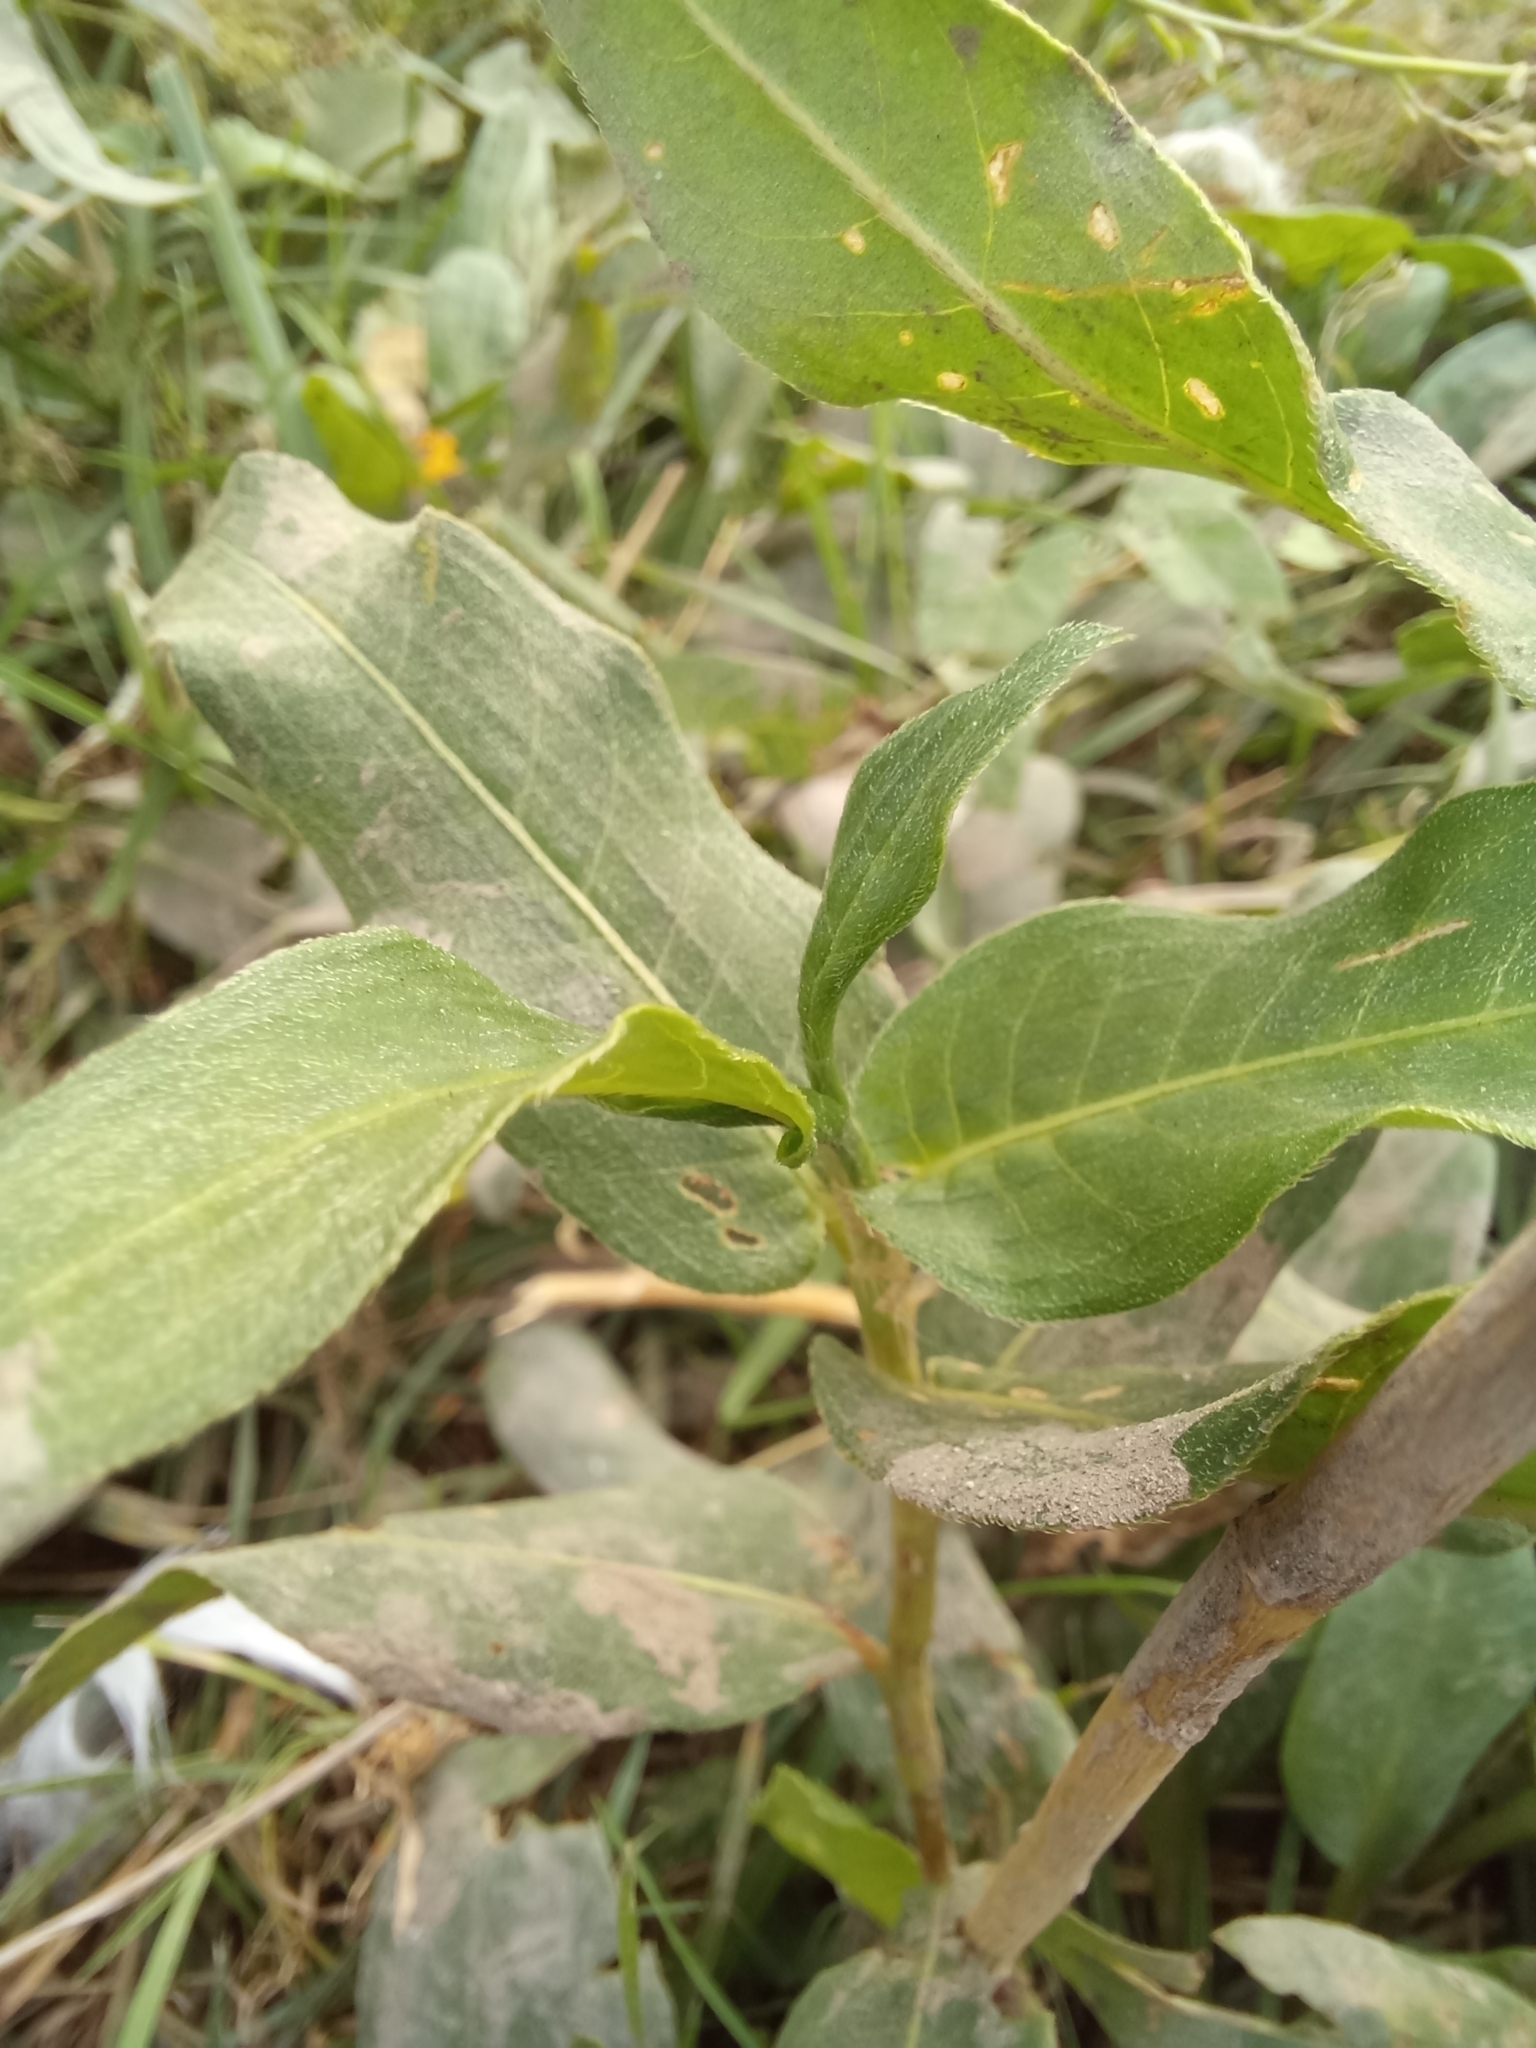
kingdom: Plantae
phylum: Tracheophyta
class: Magnoliopsida
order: Caryophyllales
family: Polygonaceae
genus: Persicaria
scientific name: Persicaria amphibia
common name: Amphibious bistort
